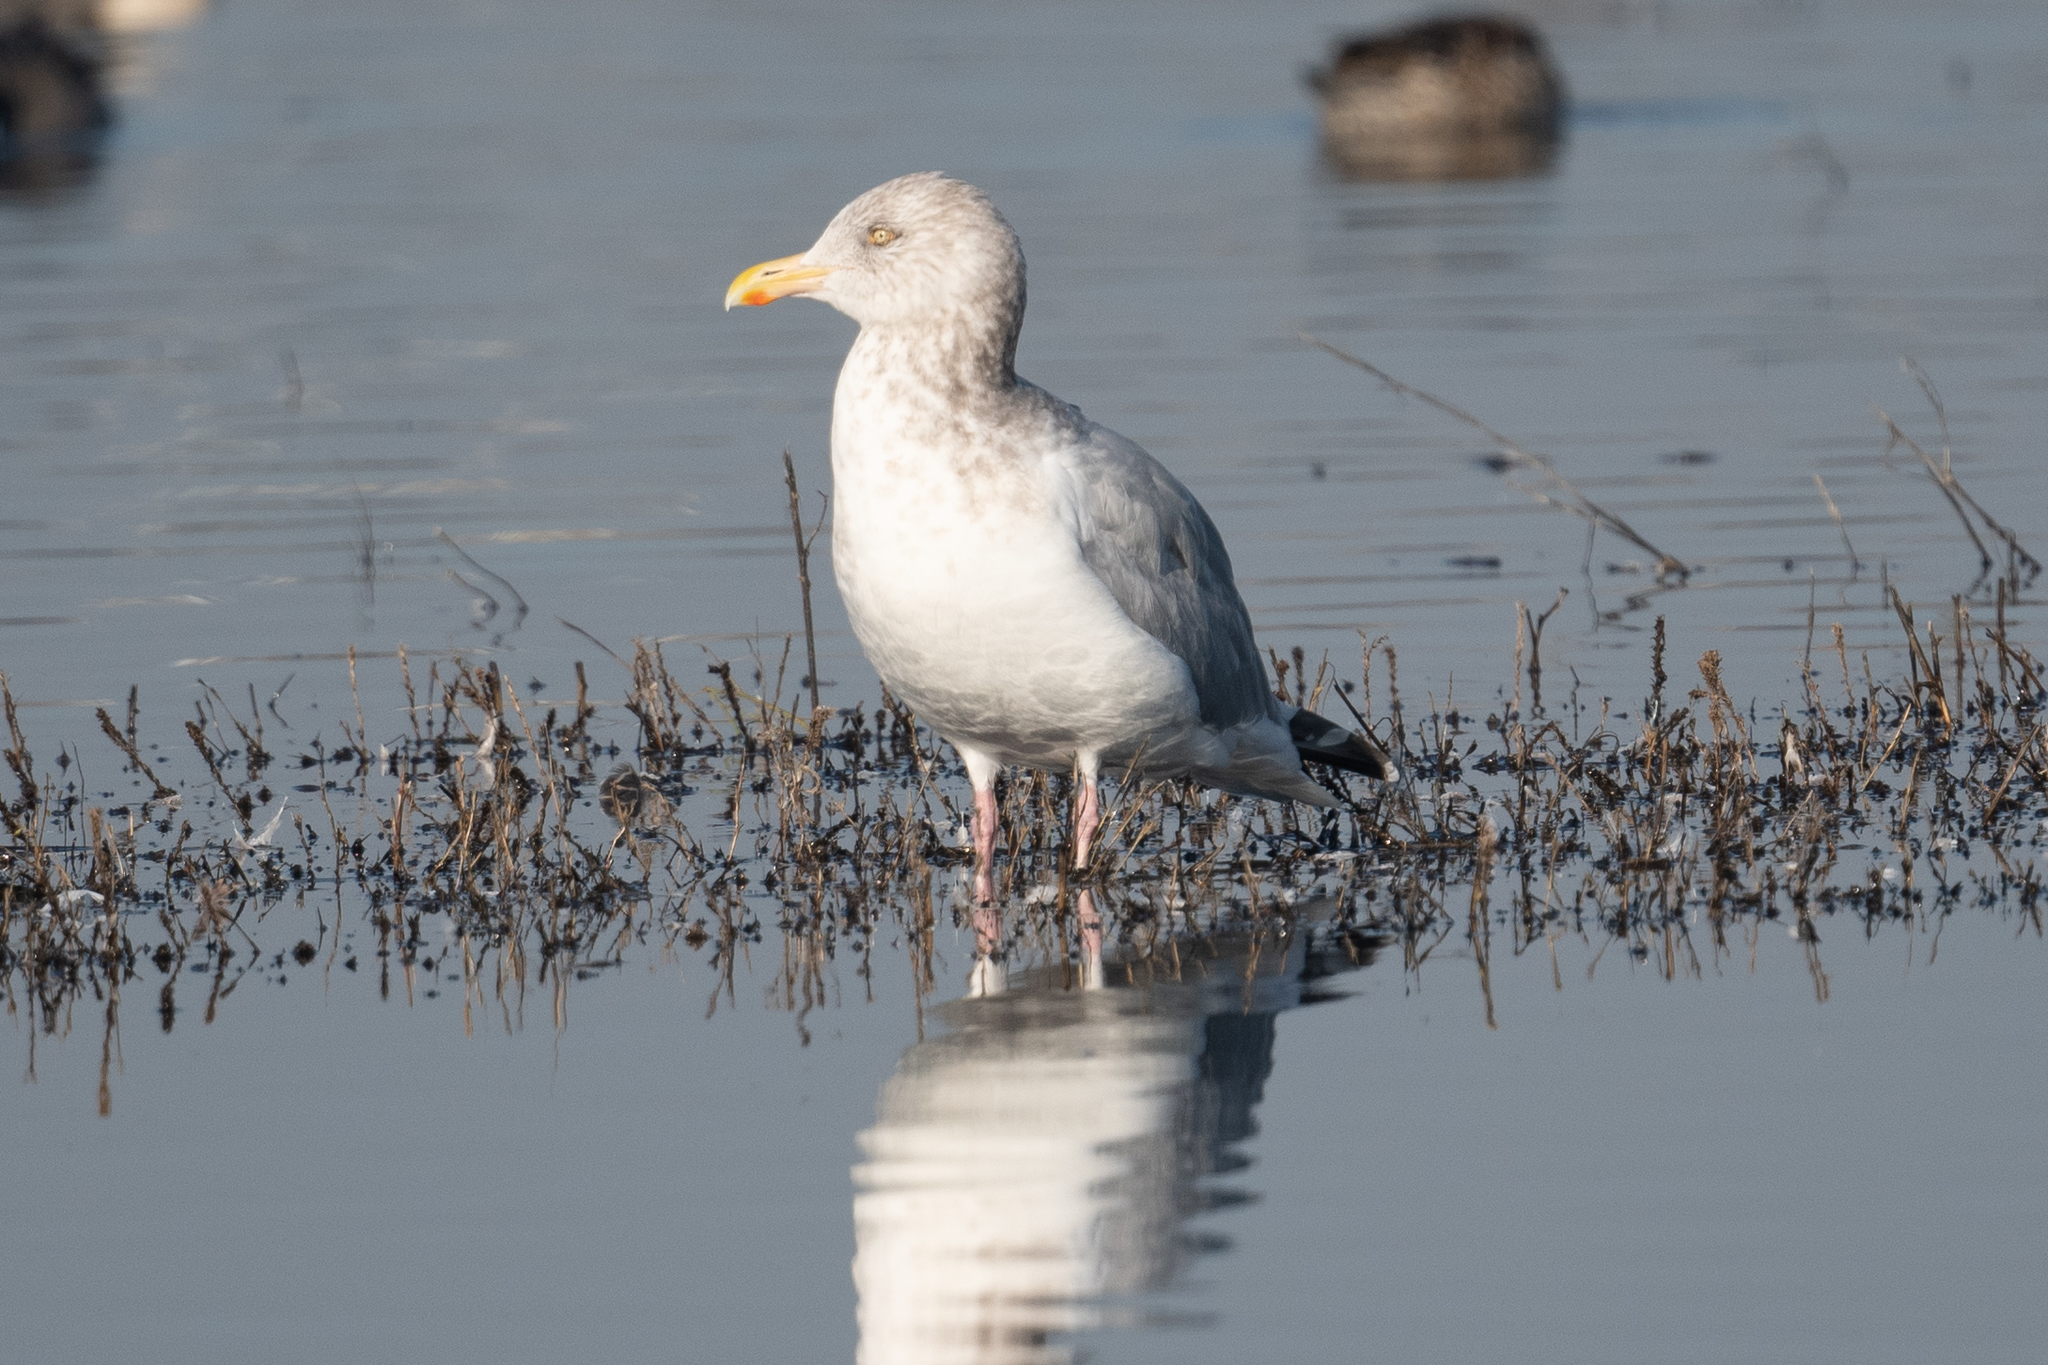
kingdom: Animalia
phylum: Chordata
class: Aves
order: Charadriiformes
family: Laridae
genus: Larus
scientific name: Larus argentatus
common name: Herring gull
